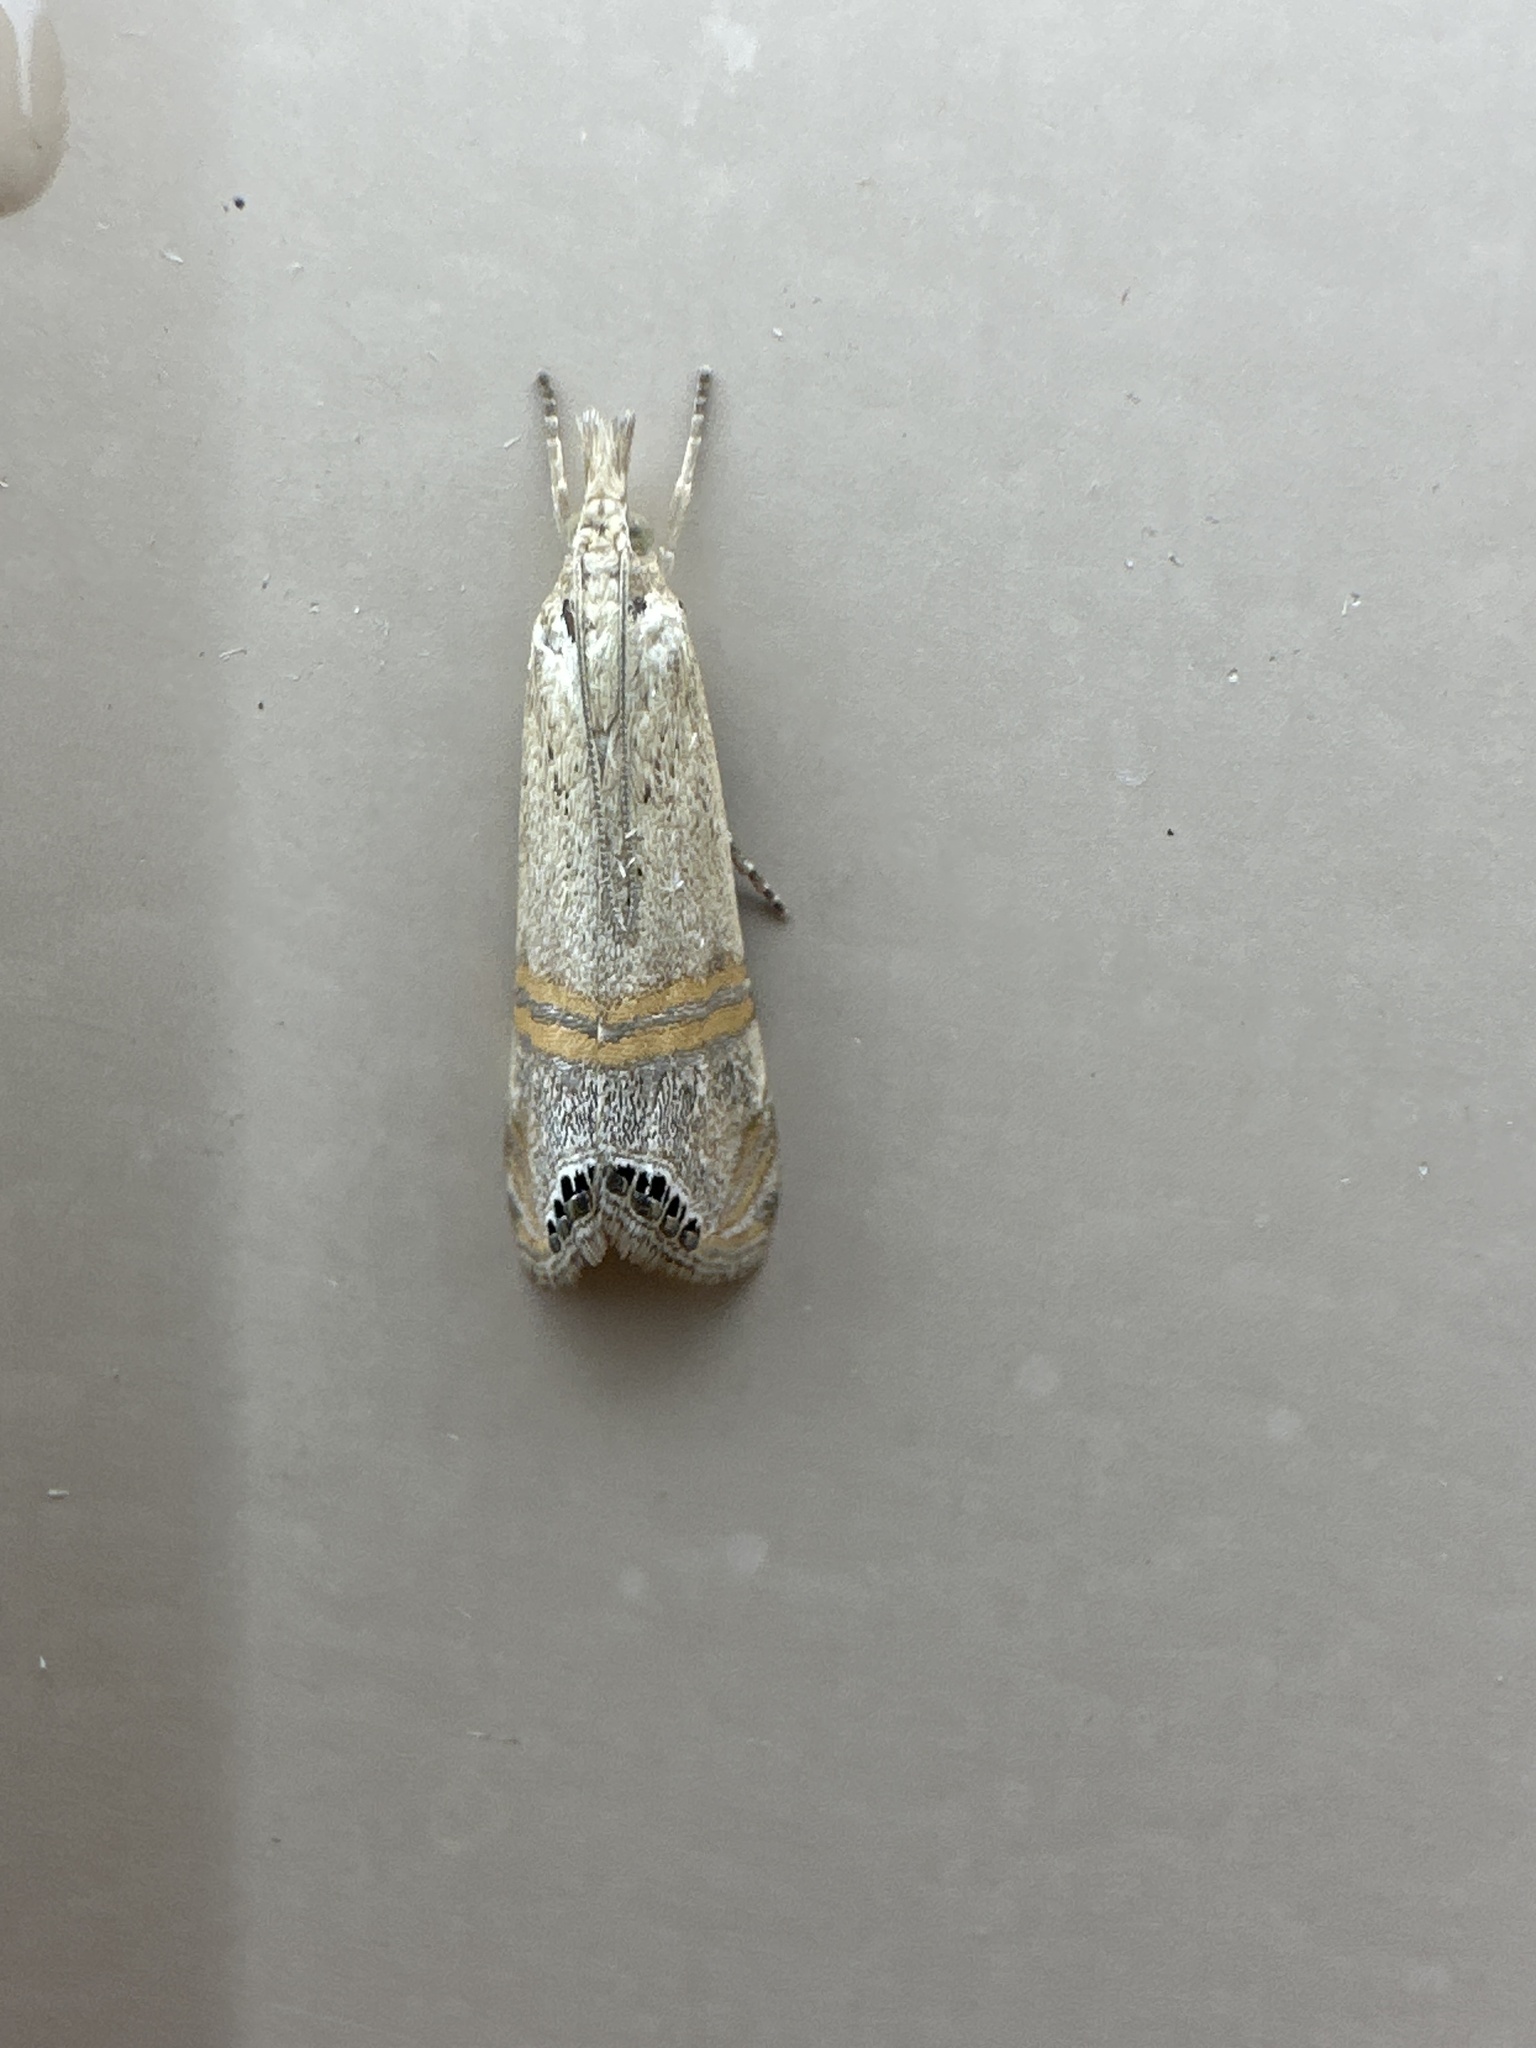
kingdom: Animalia
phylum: Arthropoda
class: Insecta
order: Lepidoptera
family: Crambidae
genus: Euchromius
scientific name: Euchromius ocellea
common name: Necklace veneer moth
